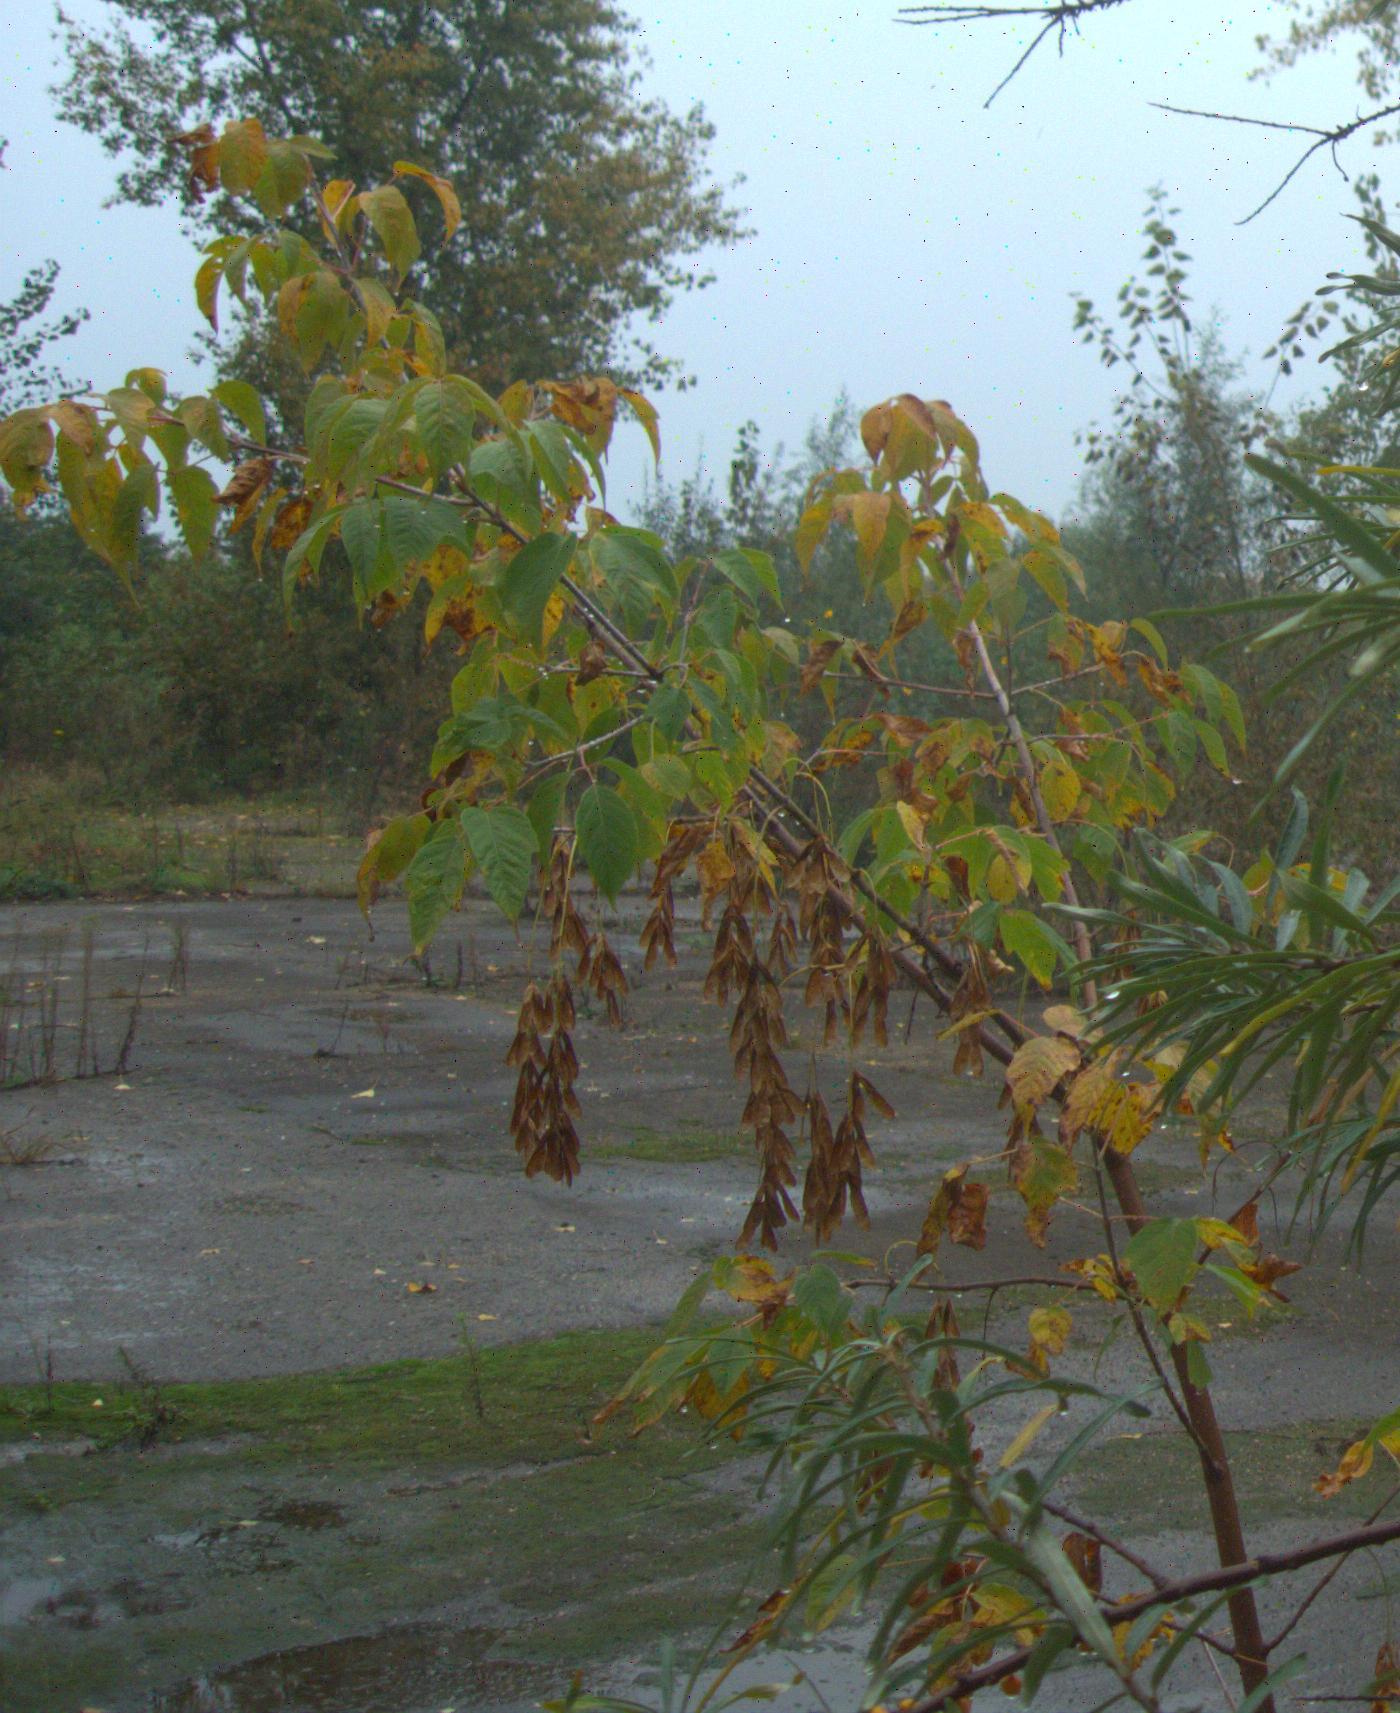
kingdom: Plantae
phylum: Tracheophyta
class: Magnoliopsida
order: Sapindales
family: Sapindaceae
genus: Acer
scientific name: Acer negundo
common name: Ashleaf maple
